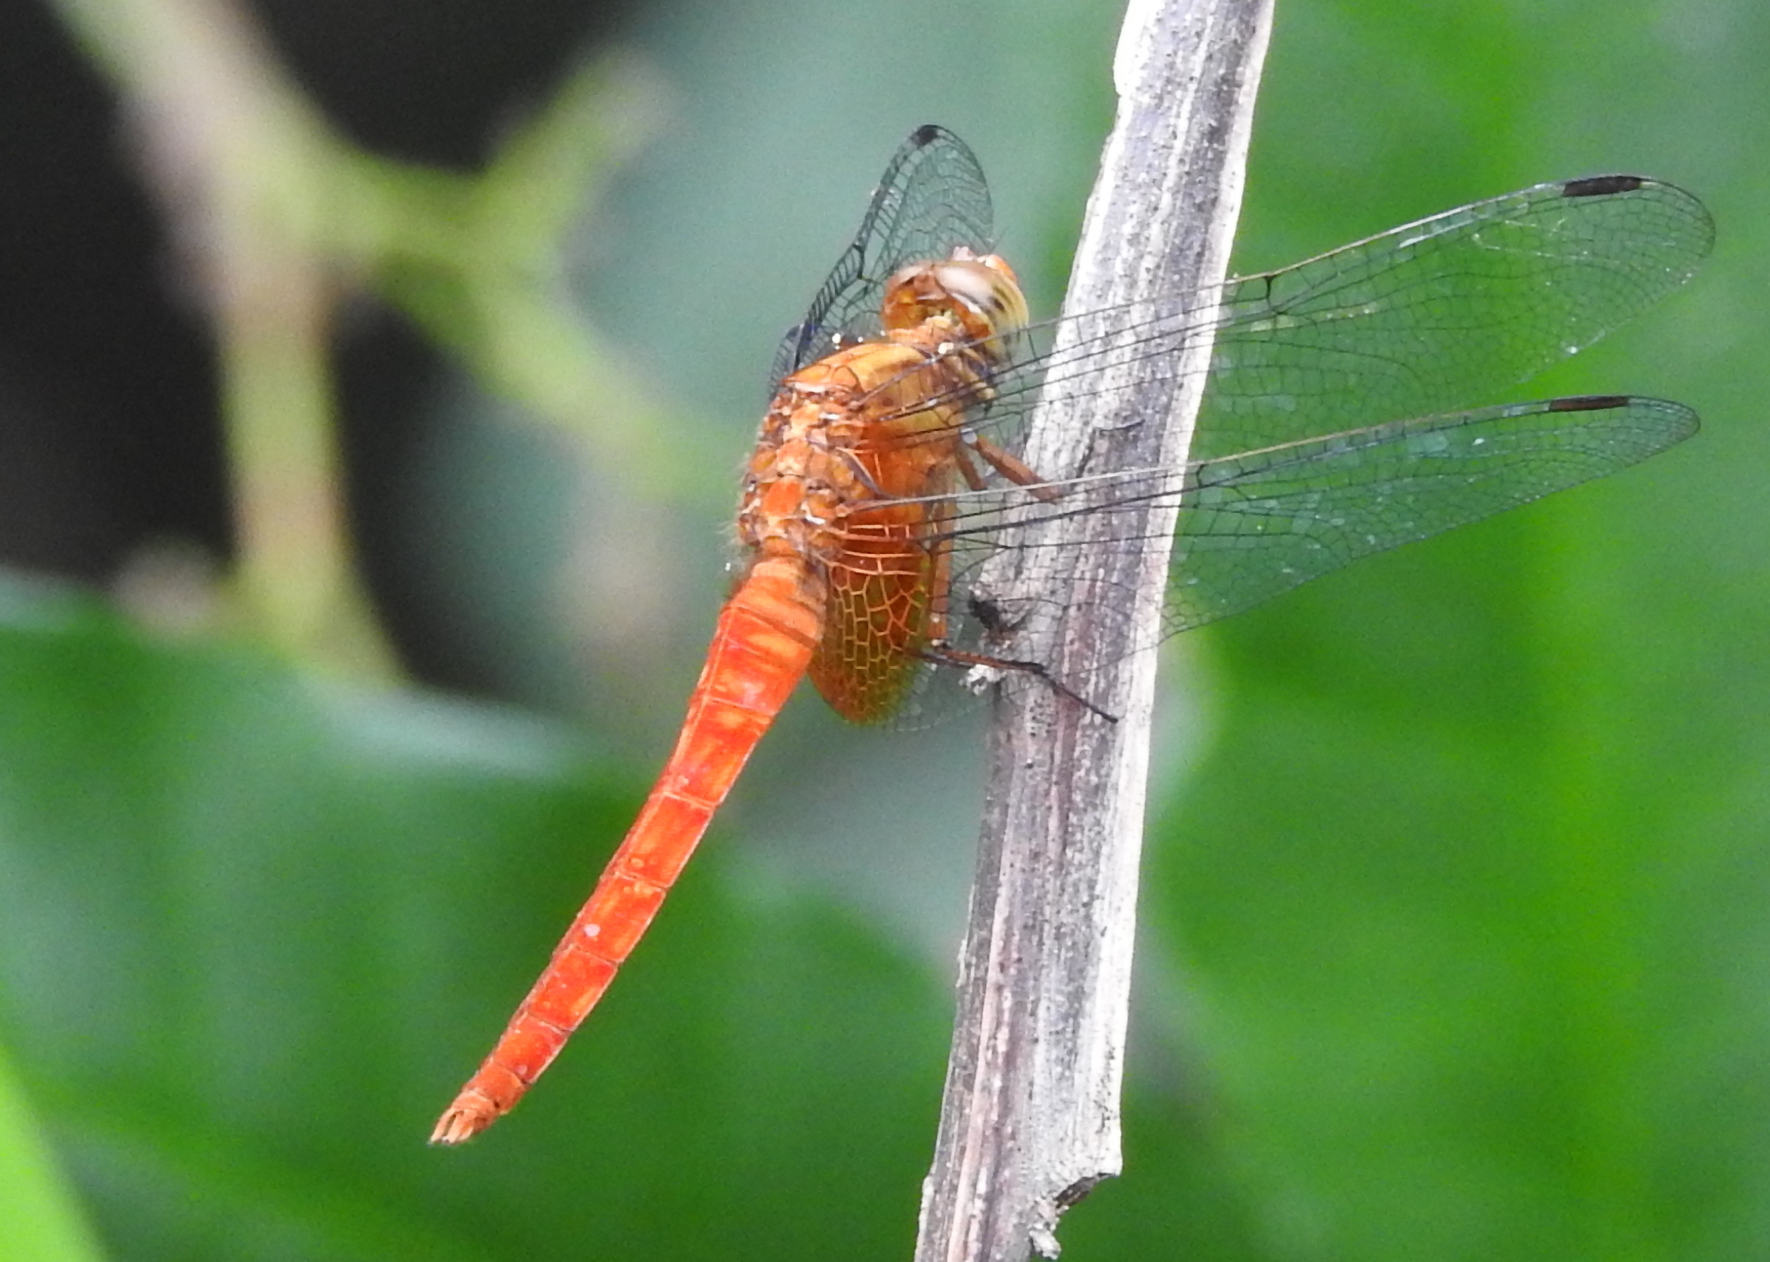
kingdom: Animalia
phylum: Arthropoda
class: Insecta
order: Odonata
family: Libellulidae
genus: Orthetrum
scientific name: Orthetrum testaceum
